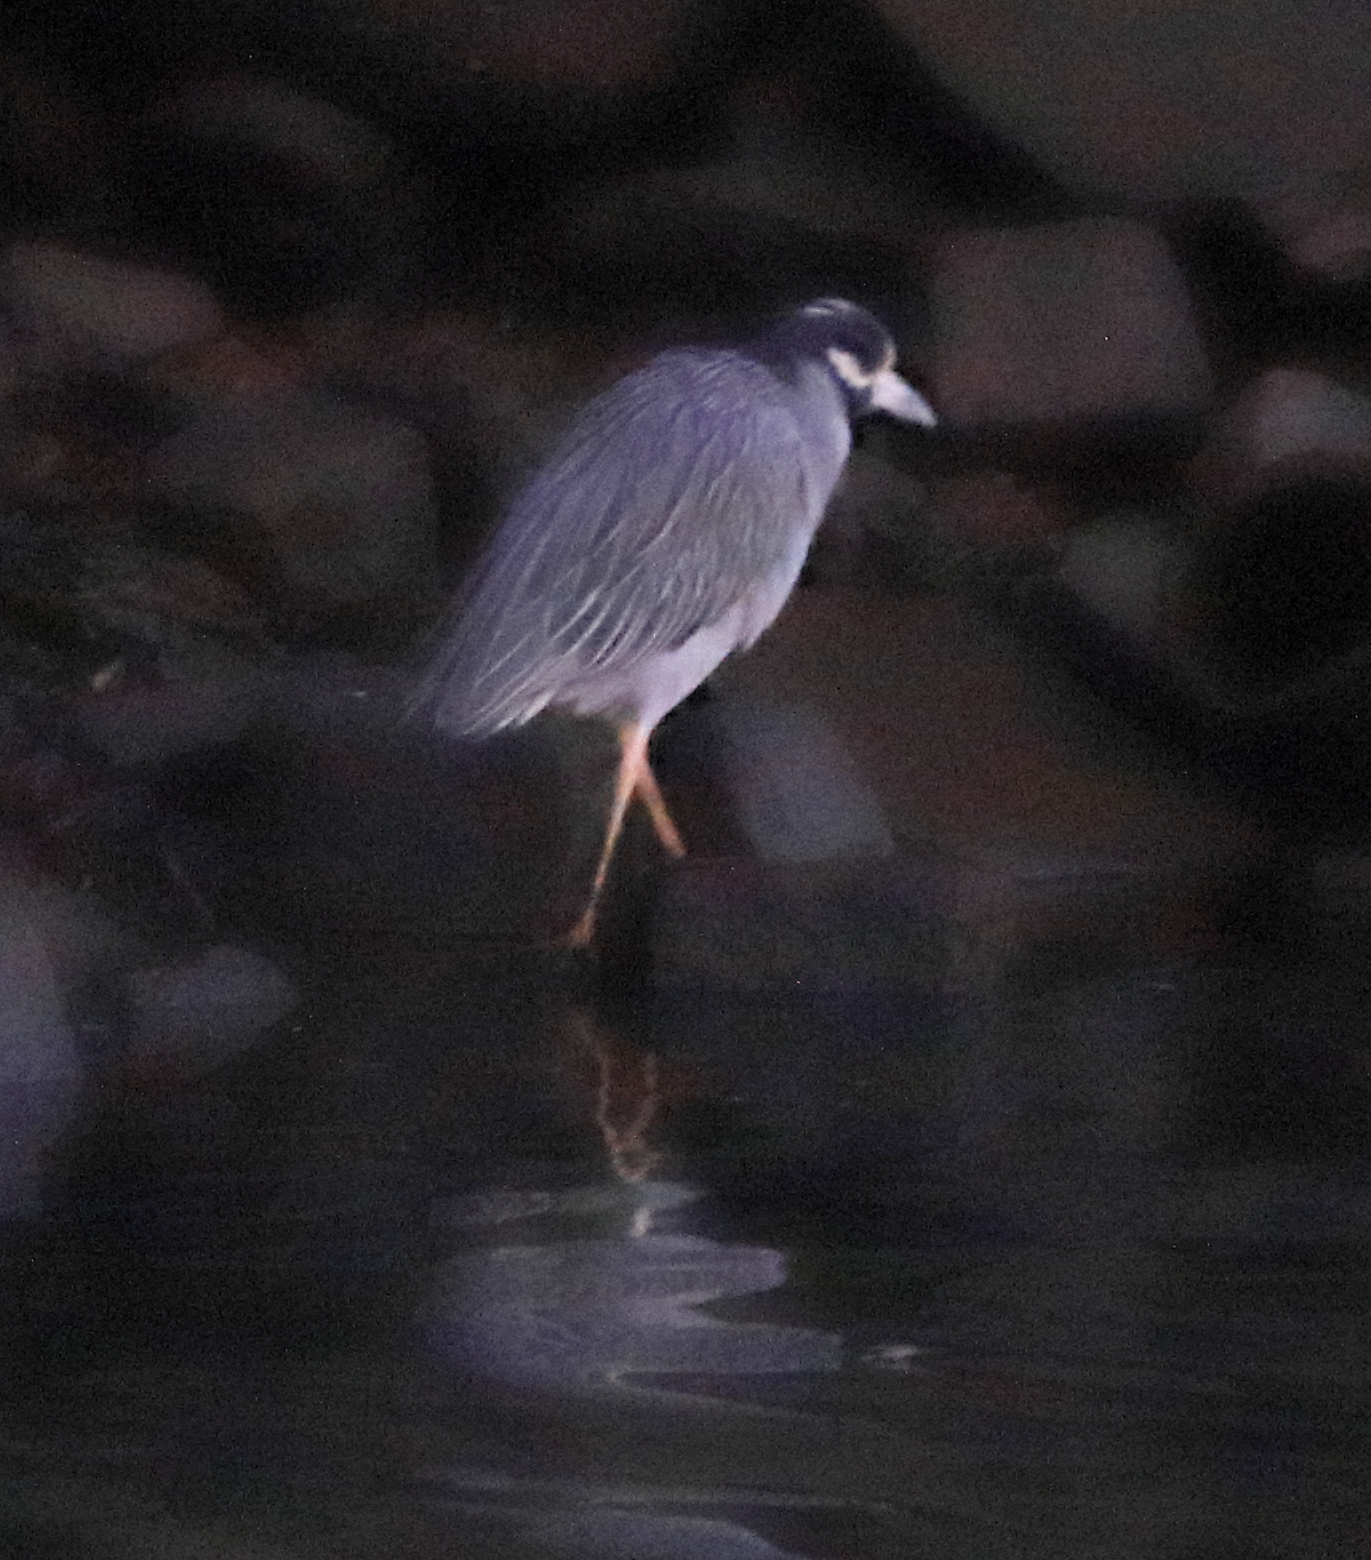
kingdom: Animalia
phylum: Chordata
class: Aves
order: Pelecaniformes
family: Ardeidae
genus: Nyctanassa
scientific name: Nyctanassa violacea
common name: Yellow-crowned night heron
